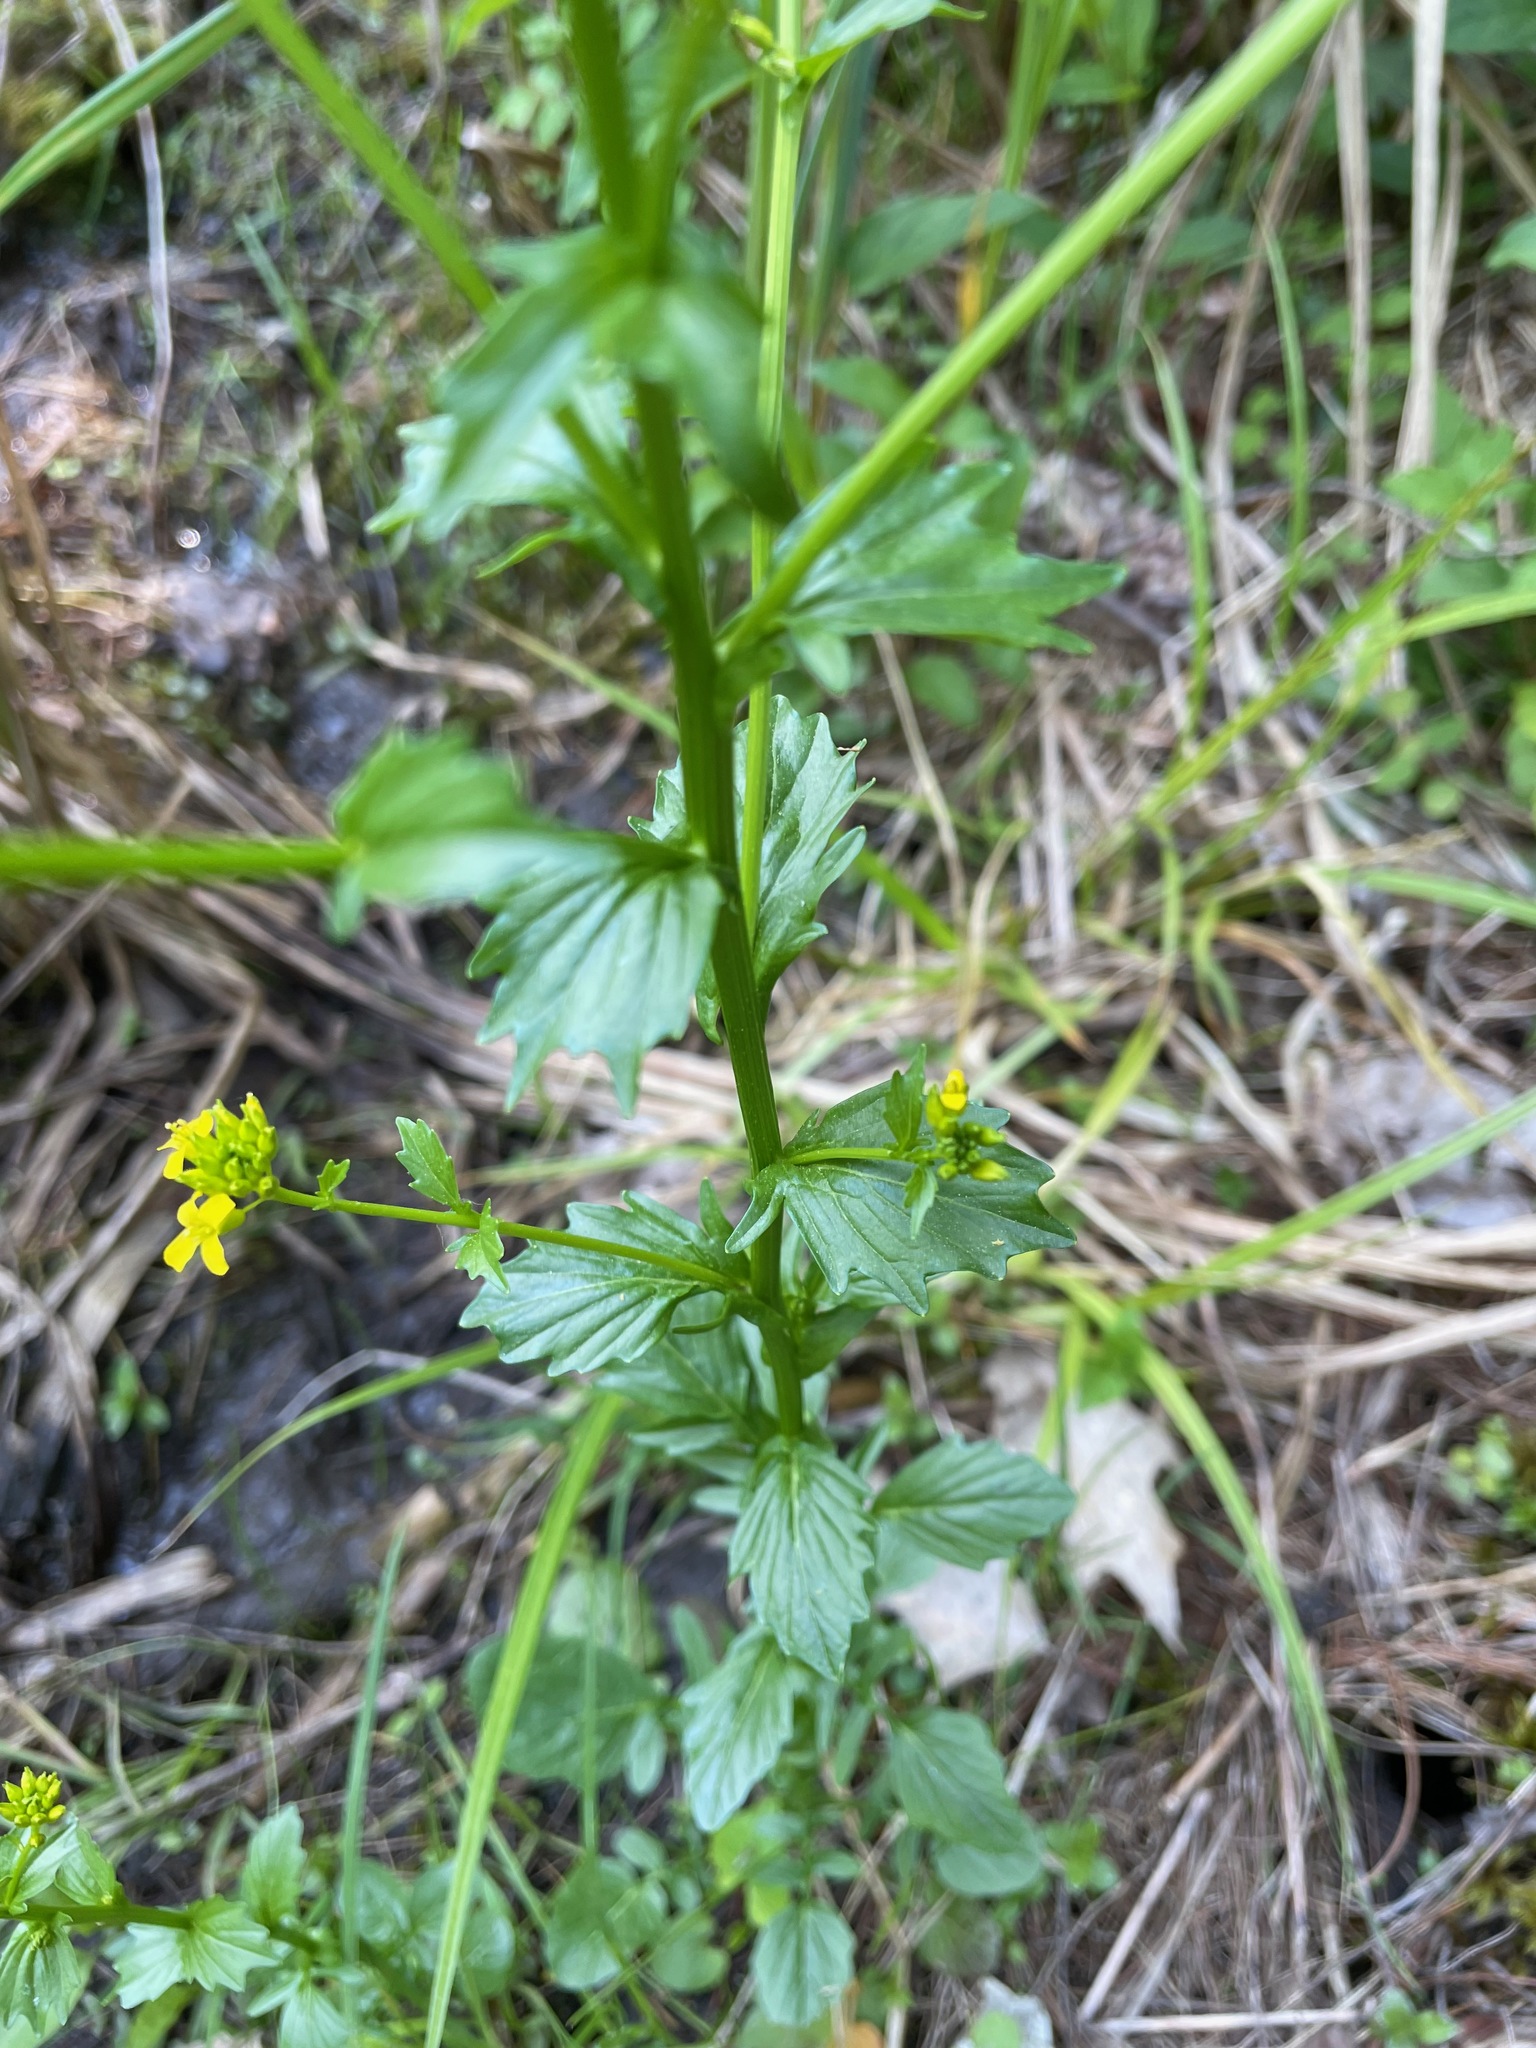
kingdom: Plantae
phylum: Tracheophyta
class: Magnoliopsida
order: Brassicales
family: Brassicaceae
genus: Barbarea
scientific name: Barbarea vulgaris
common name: Cressy-greens
